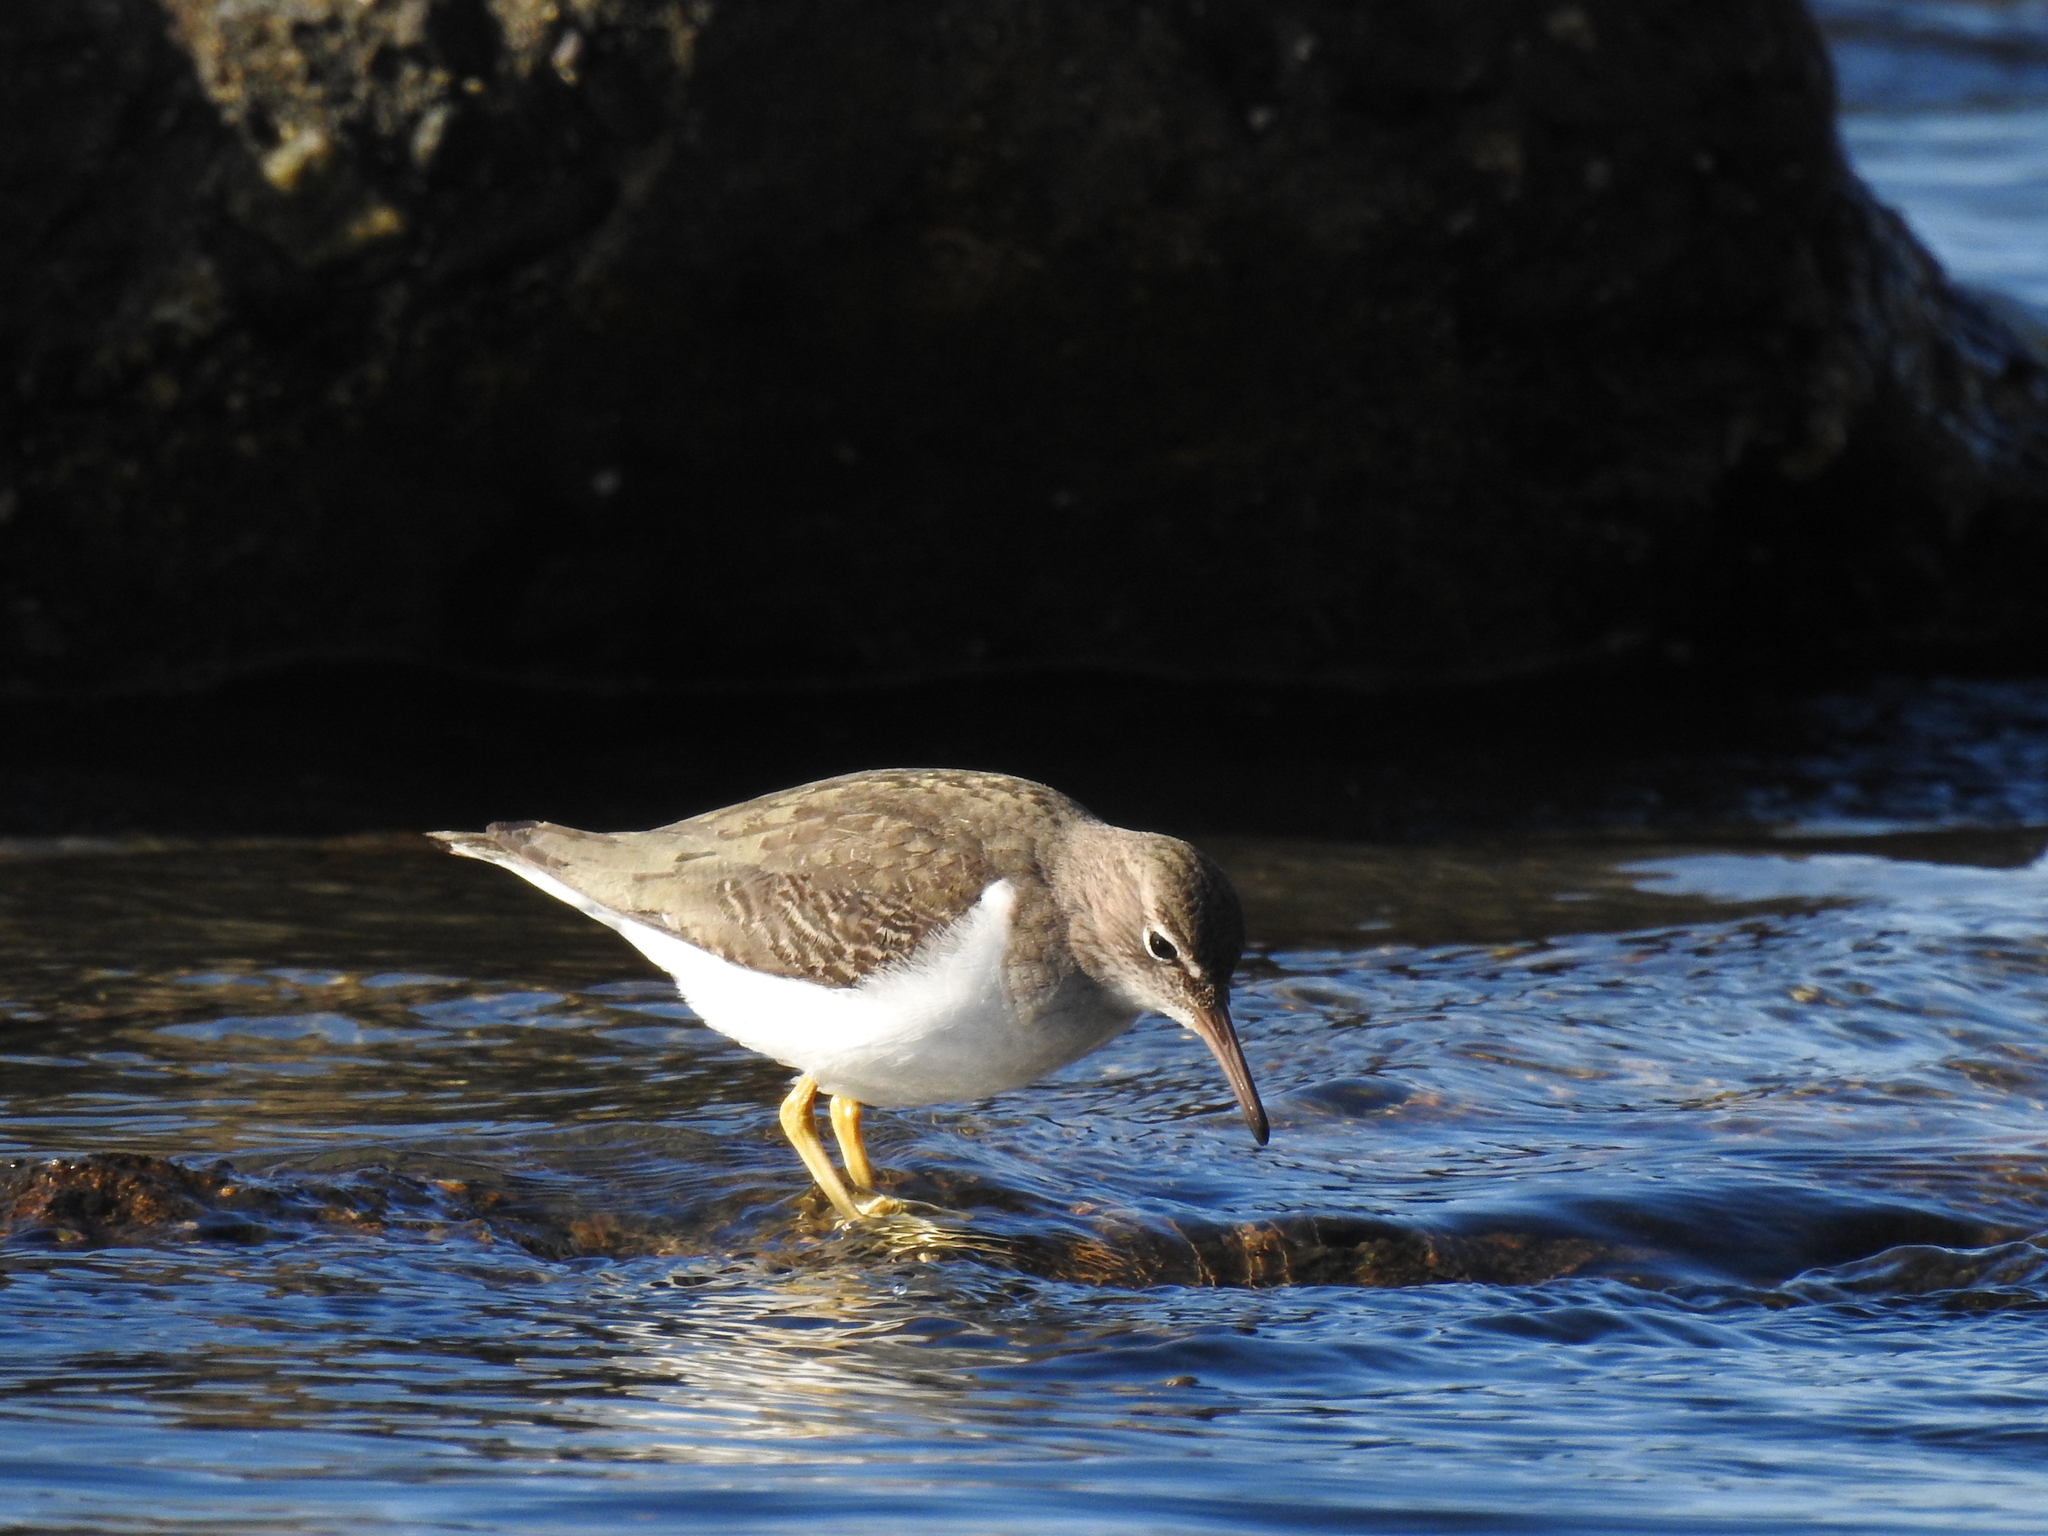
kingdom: Animalia
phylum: Chordata
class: Aves
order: Charadriiformes
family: Scolopacidae
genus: Actitis
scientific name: Actitis macularius
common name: Spotted sandpiper
